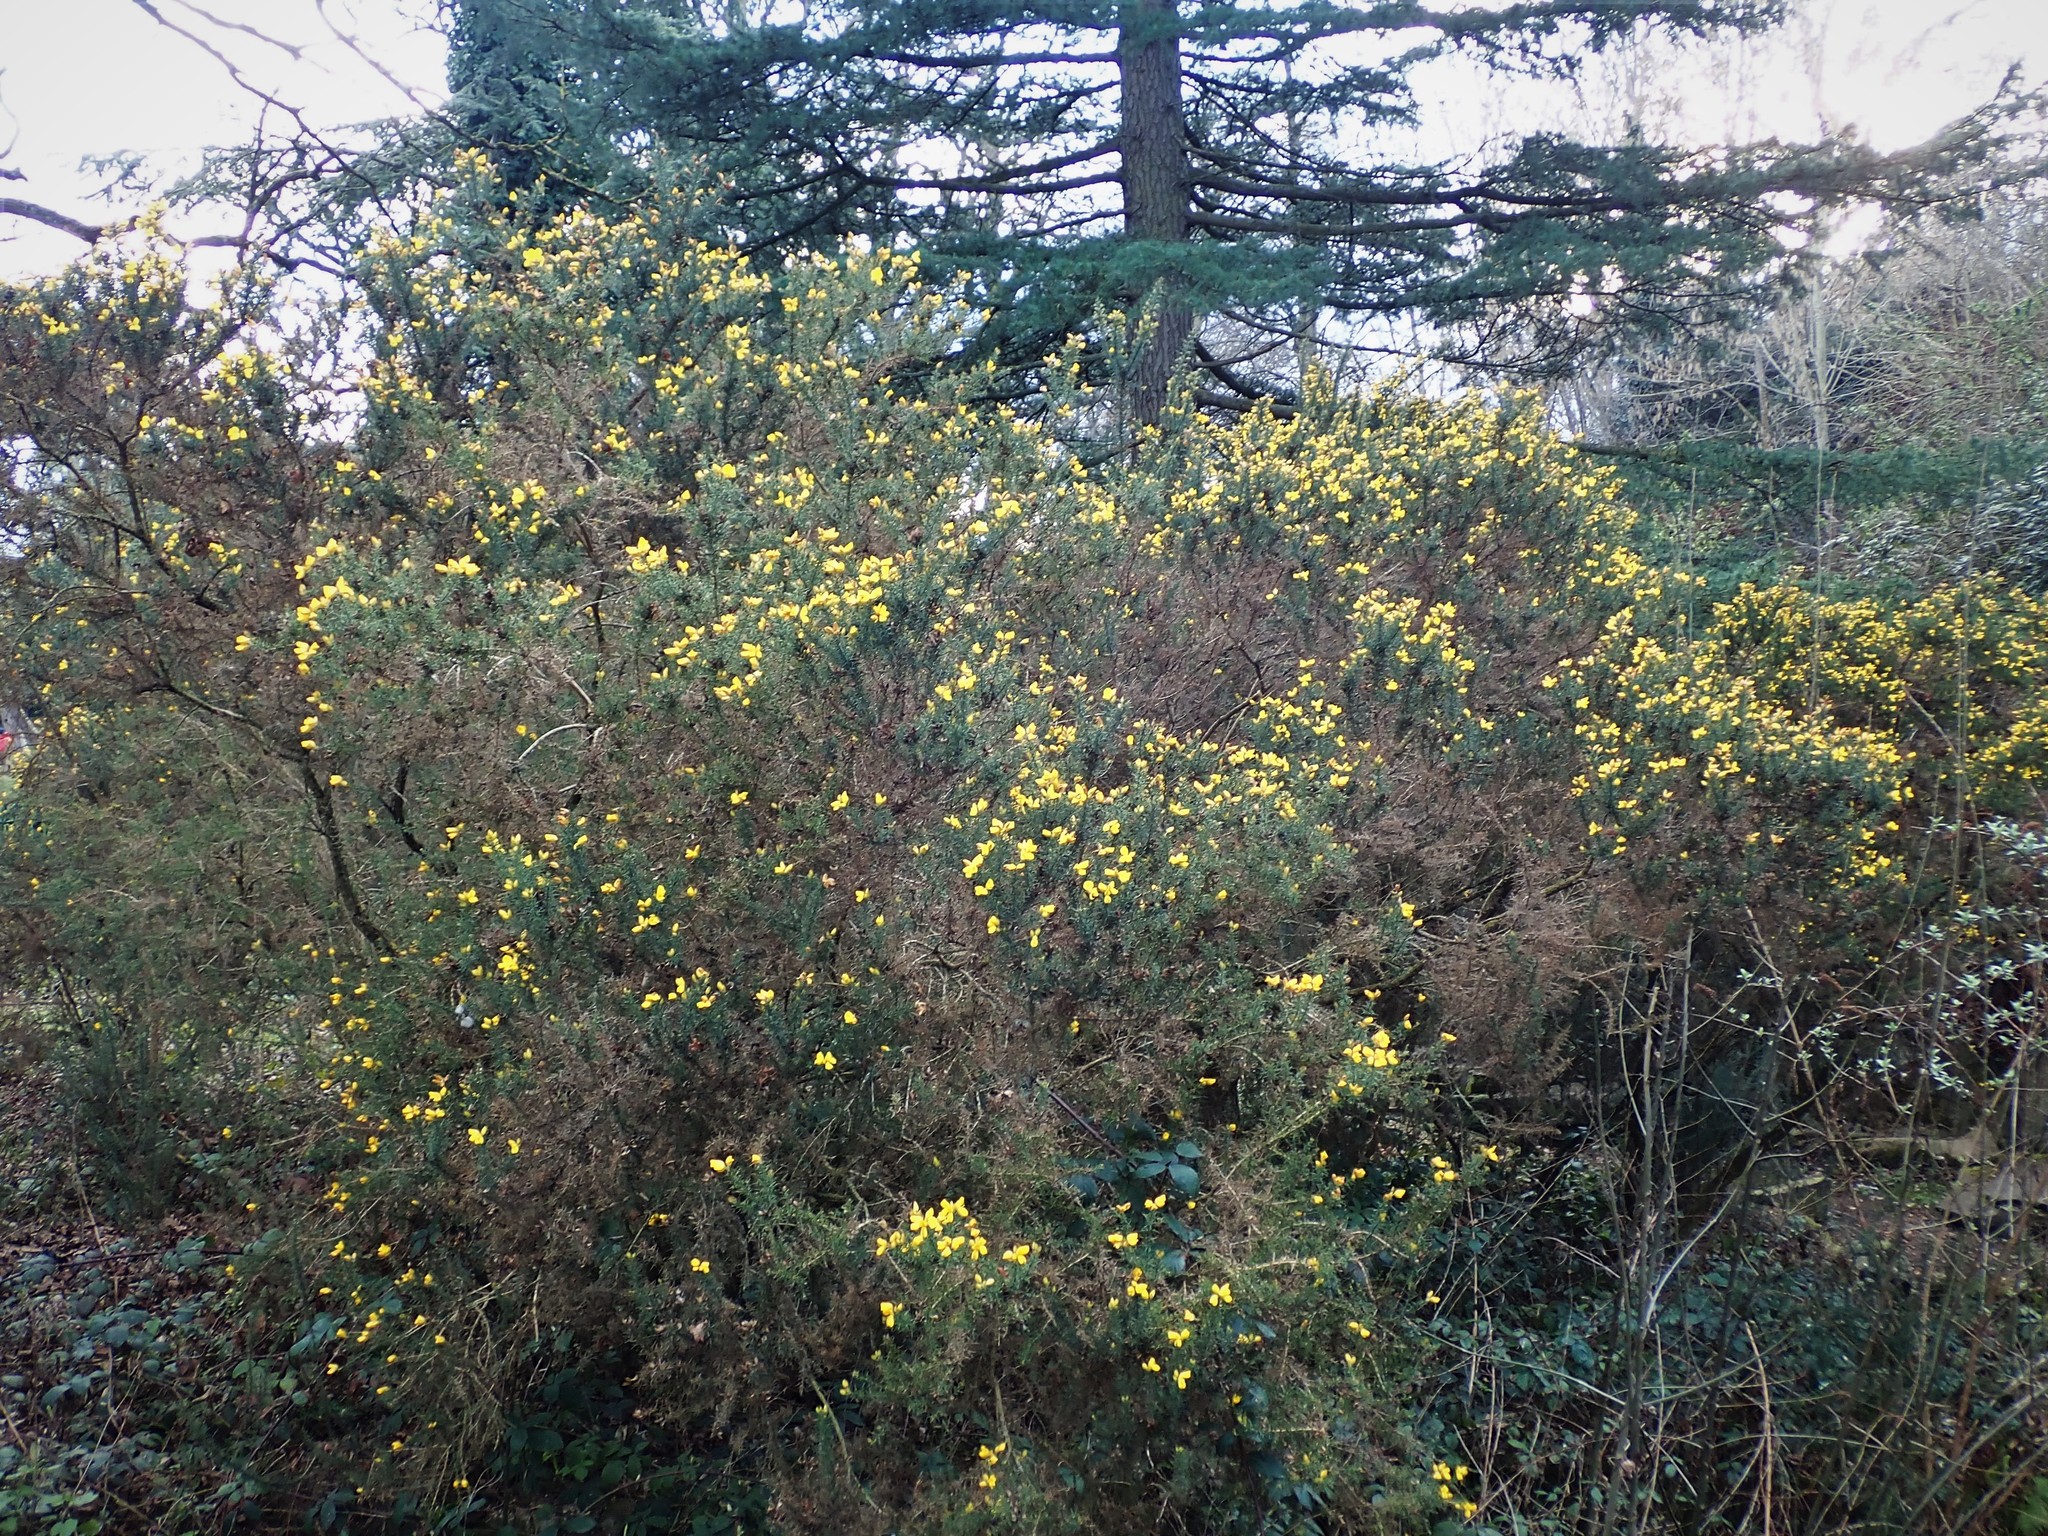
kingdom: Plantae
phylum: Tracheophyta
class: Magnoliopsida
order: Fabales
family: Fabaceae
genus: Ulex
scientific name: Ulex europaeus
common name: Common gorse
